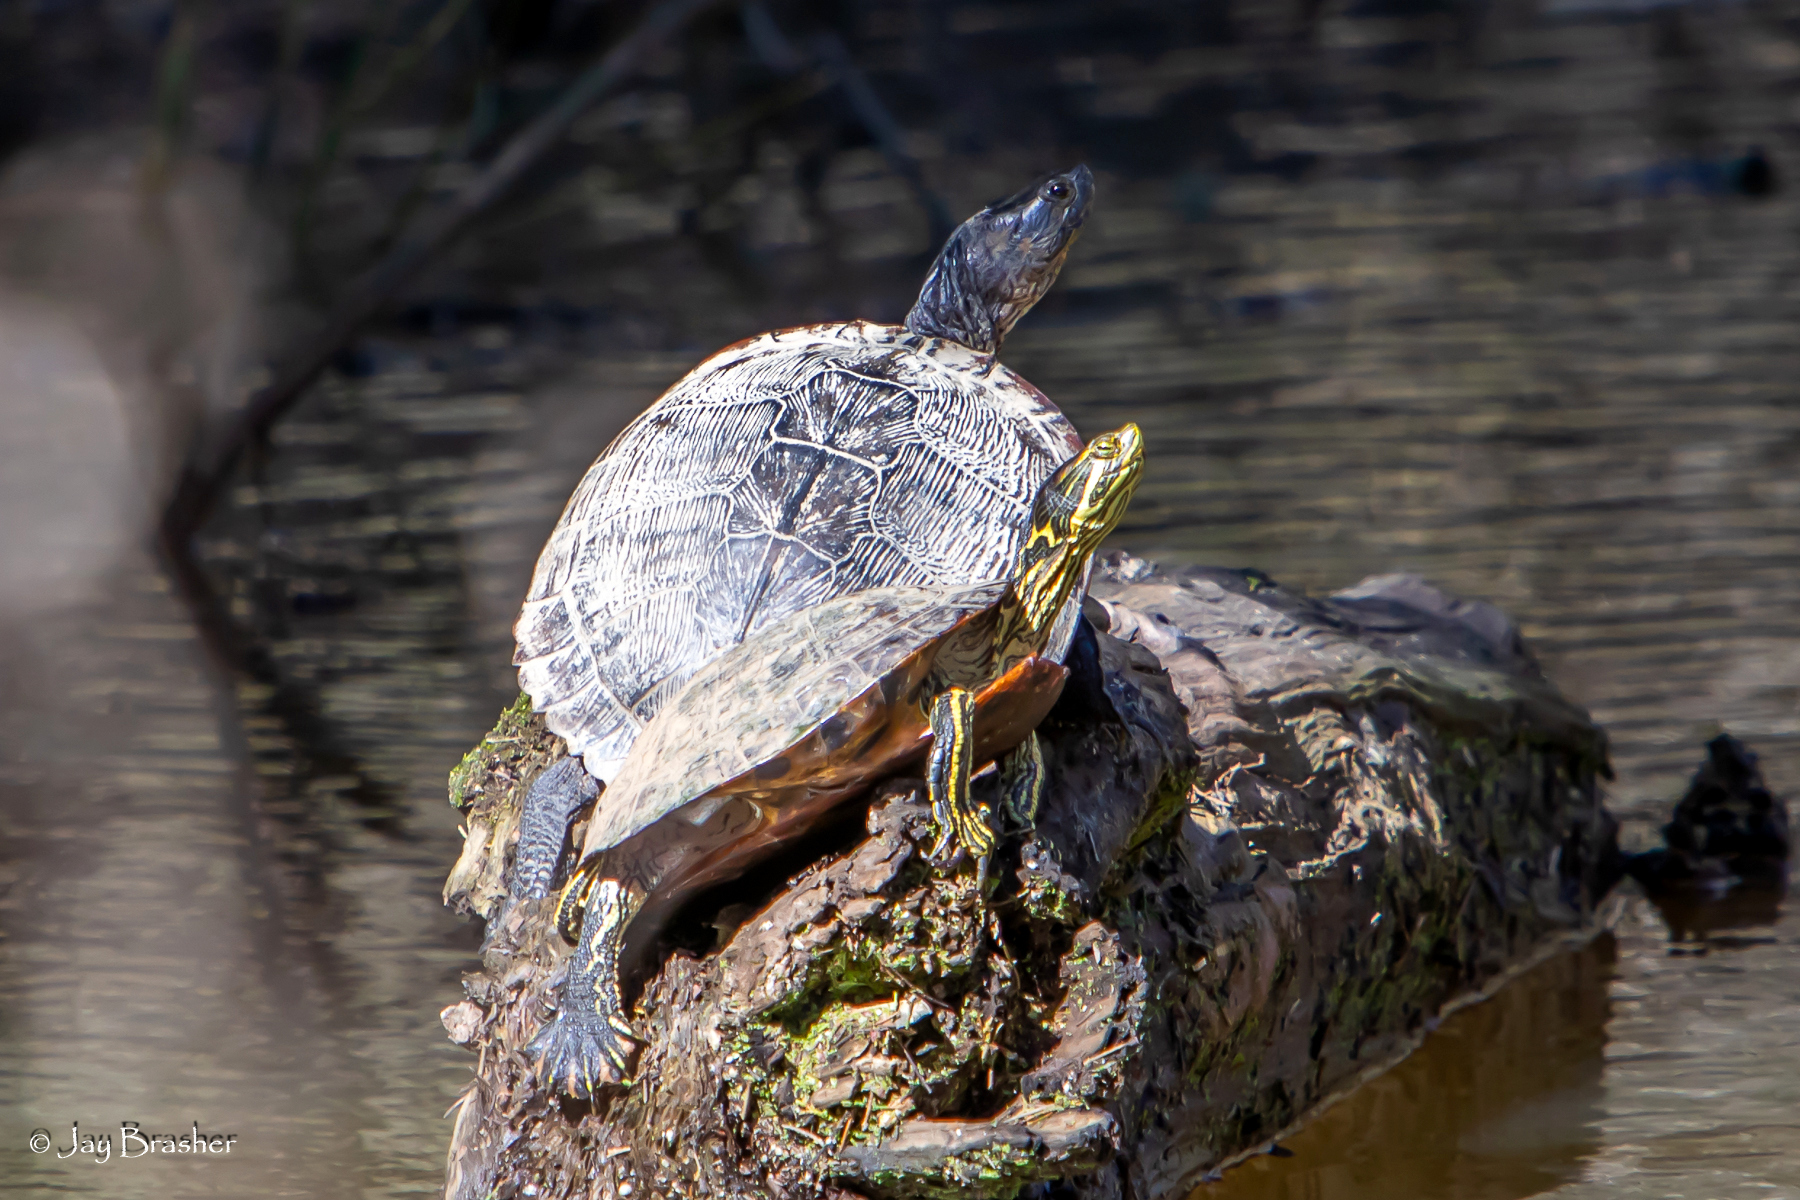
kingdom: Animalia
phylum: Chordata
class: Testudines
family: Emydidae
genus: Trachemys
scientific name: Trachemys scripta
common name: Slider
